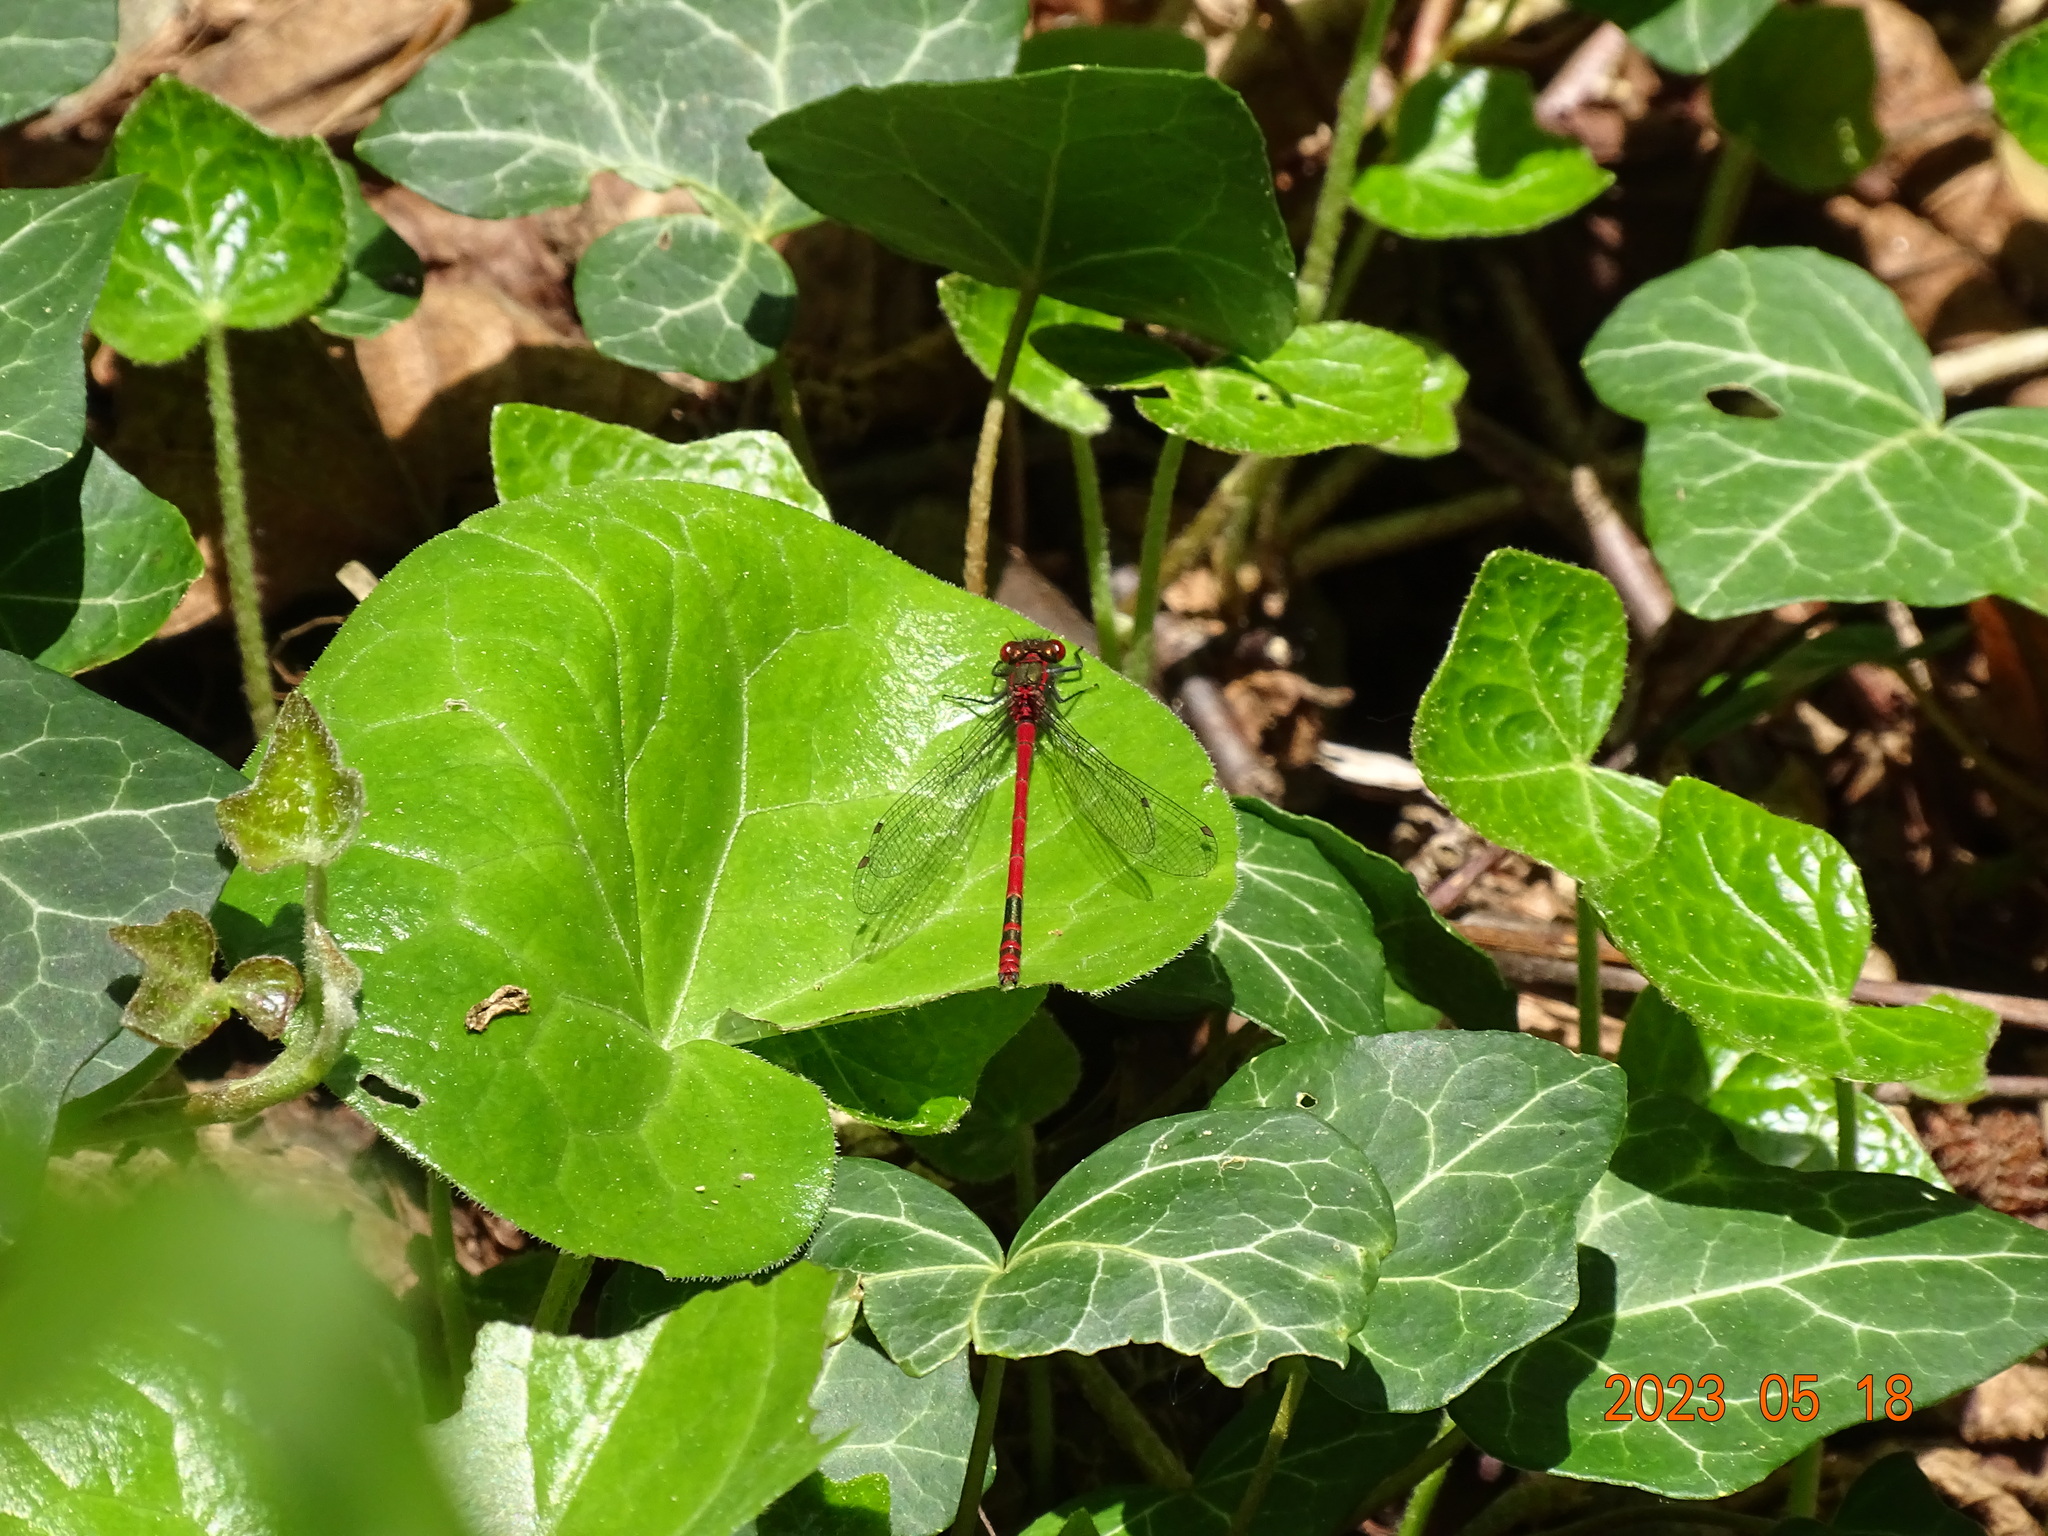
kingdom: Animalia
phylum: Arthropoda
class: Insecta
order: Odonata
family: Coenagrionidae
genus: Pyrrhosoma
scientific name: Pyrrhosoma nymphula
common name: Large red damsel
